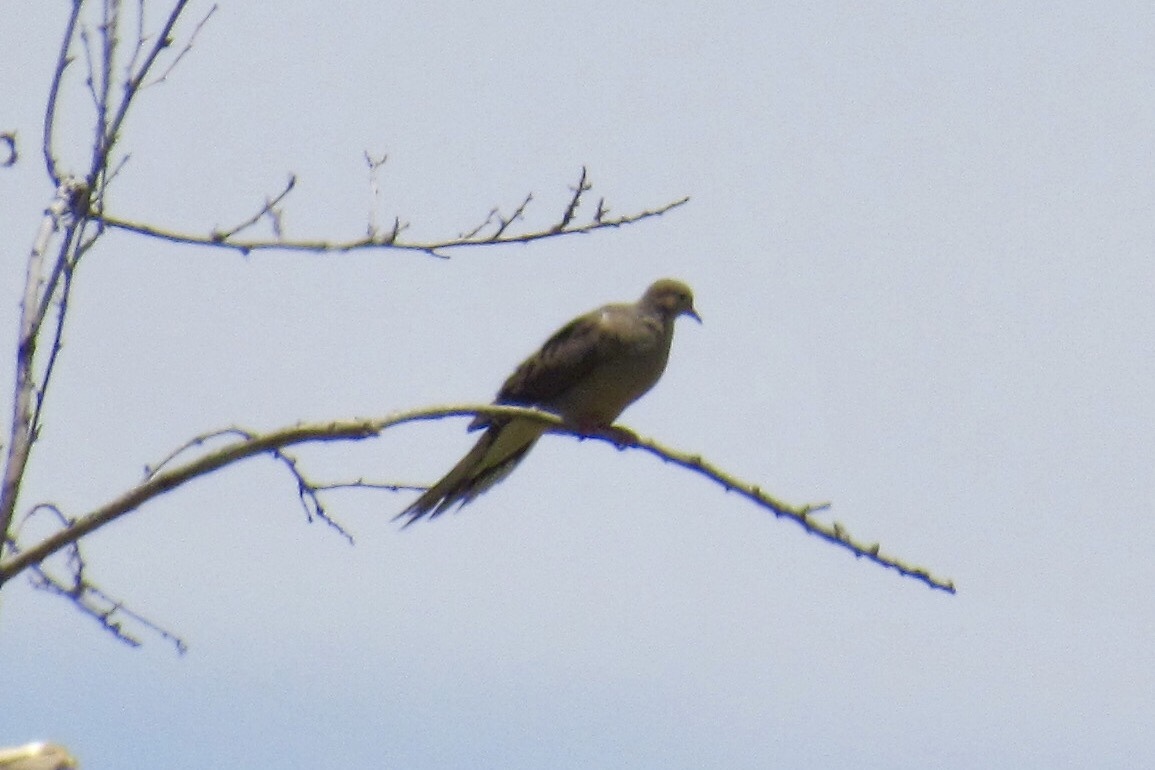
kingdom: Animalia
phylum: Chordata
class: Aves
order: Columbiformes
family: Columbidae
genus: Zenaida
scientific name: Zenaida macroura
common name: Mourning dove
